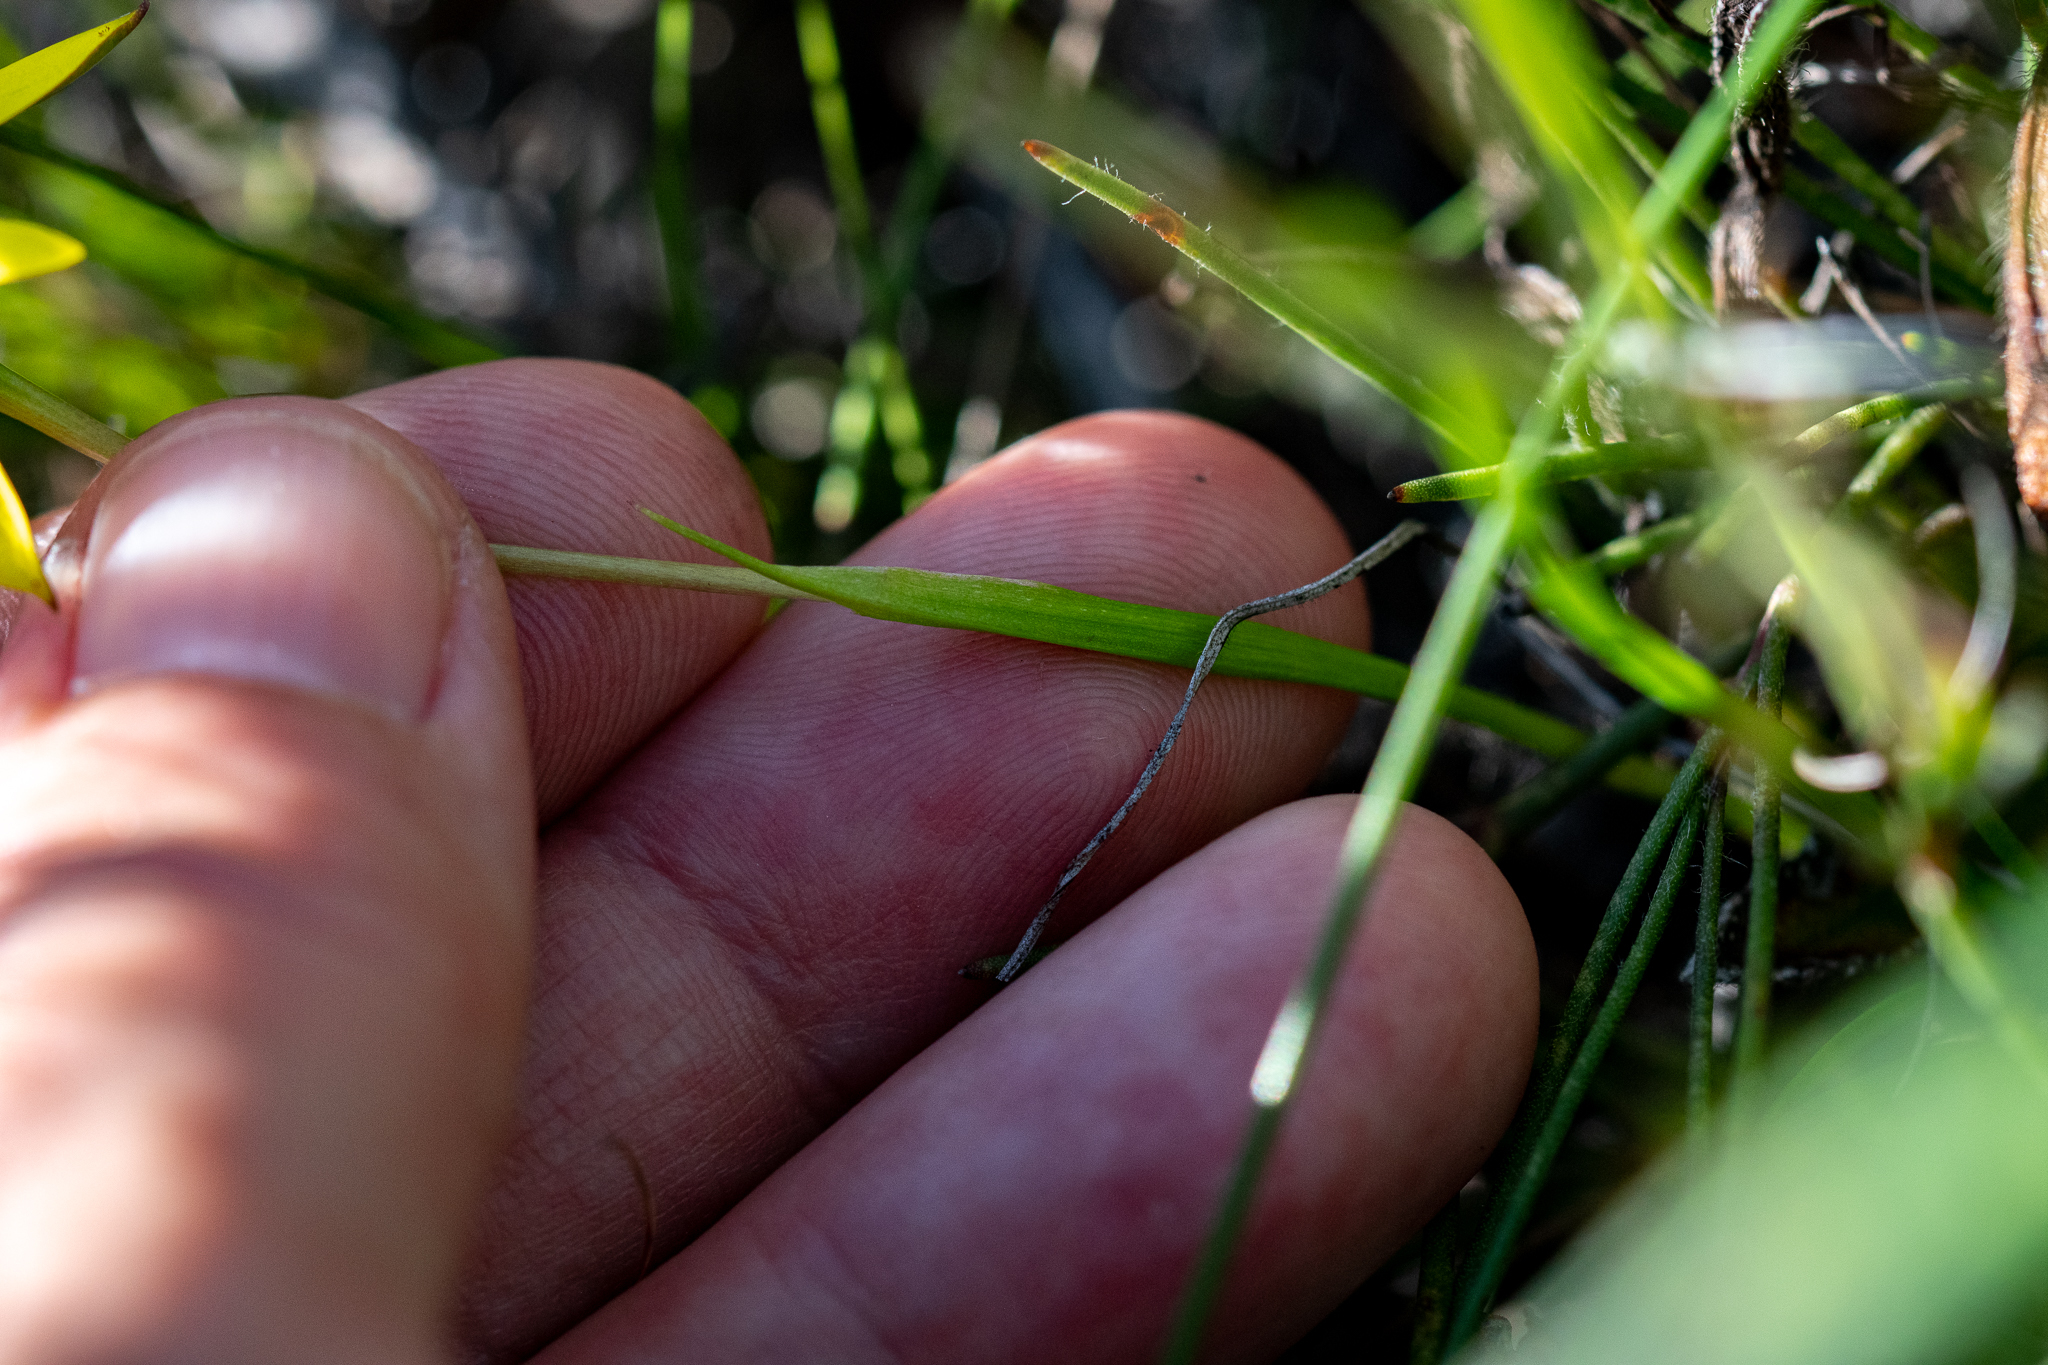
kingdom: Plantae
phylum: Tracheophyta
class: Liliopsida
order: Asparagales
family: Hypoxidaceae
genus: Pauridia
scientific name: Pauridia curculigoides
